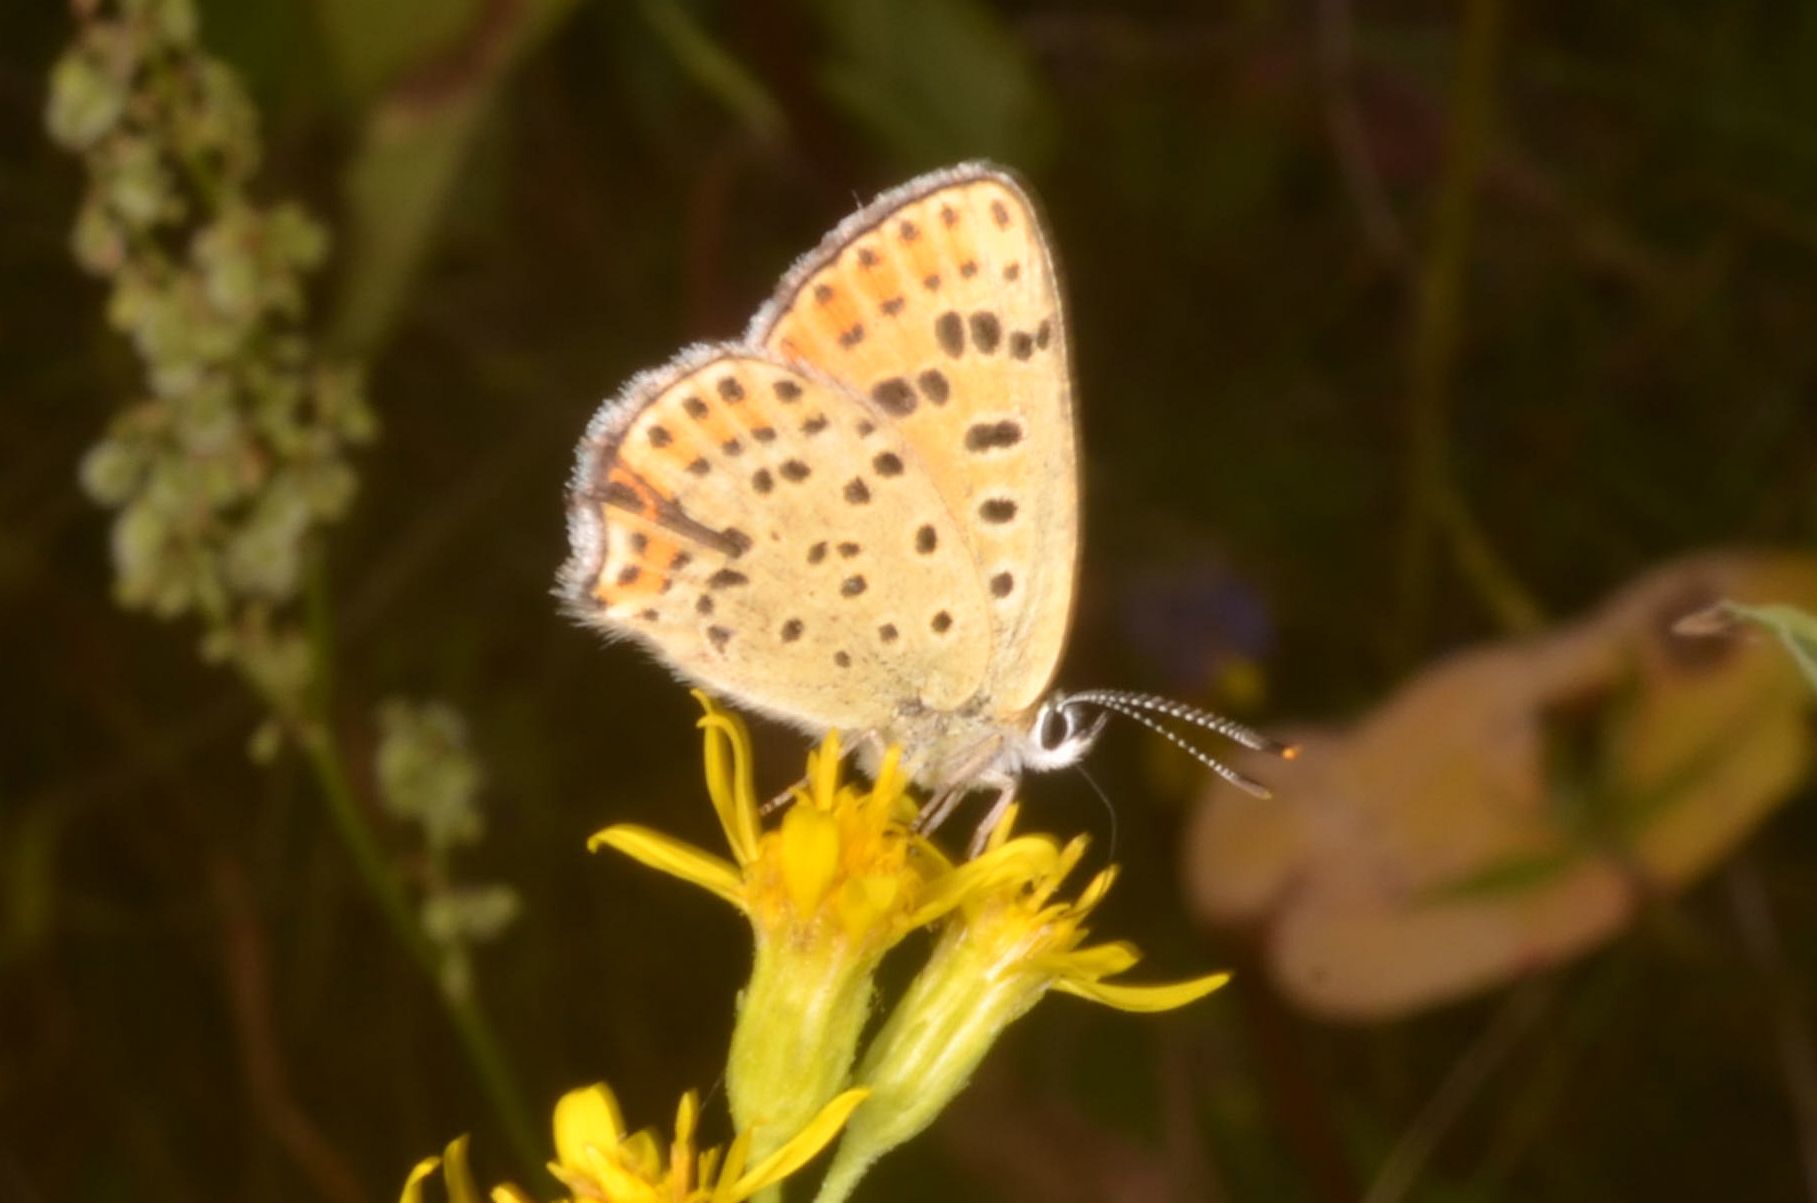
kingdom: Animalia
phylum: Arthropoda
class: Insecta
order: Lepidoptera
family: Lycaenidae
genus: Loweia
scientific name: Loweia tityrus
